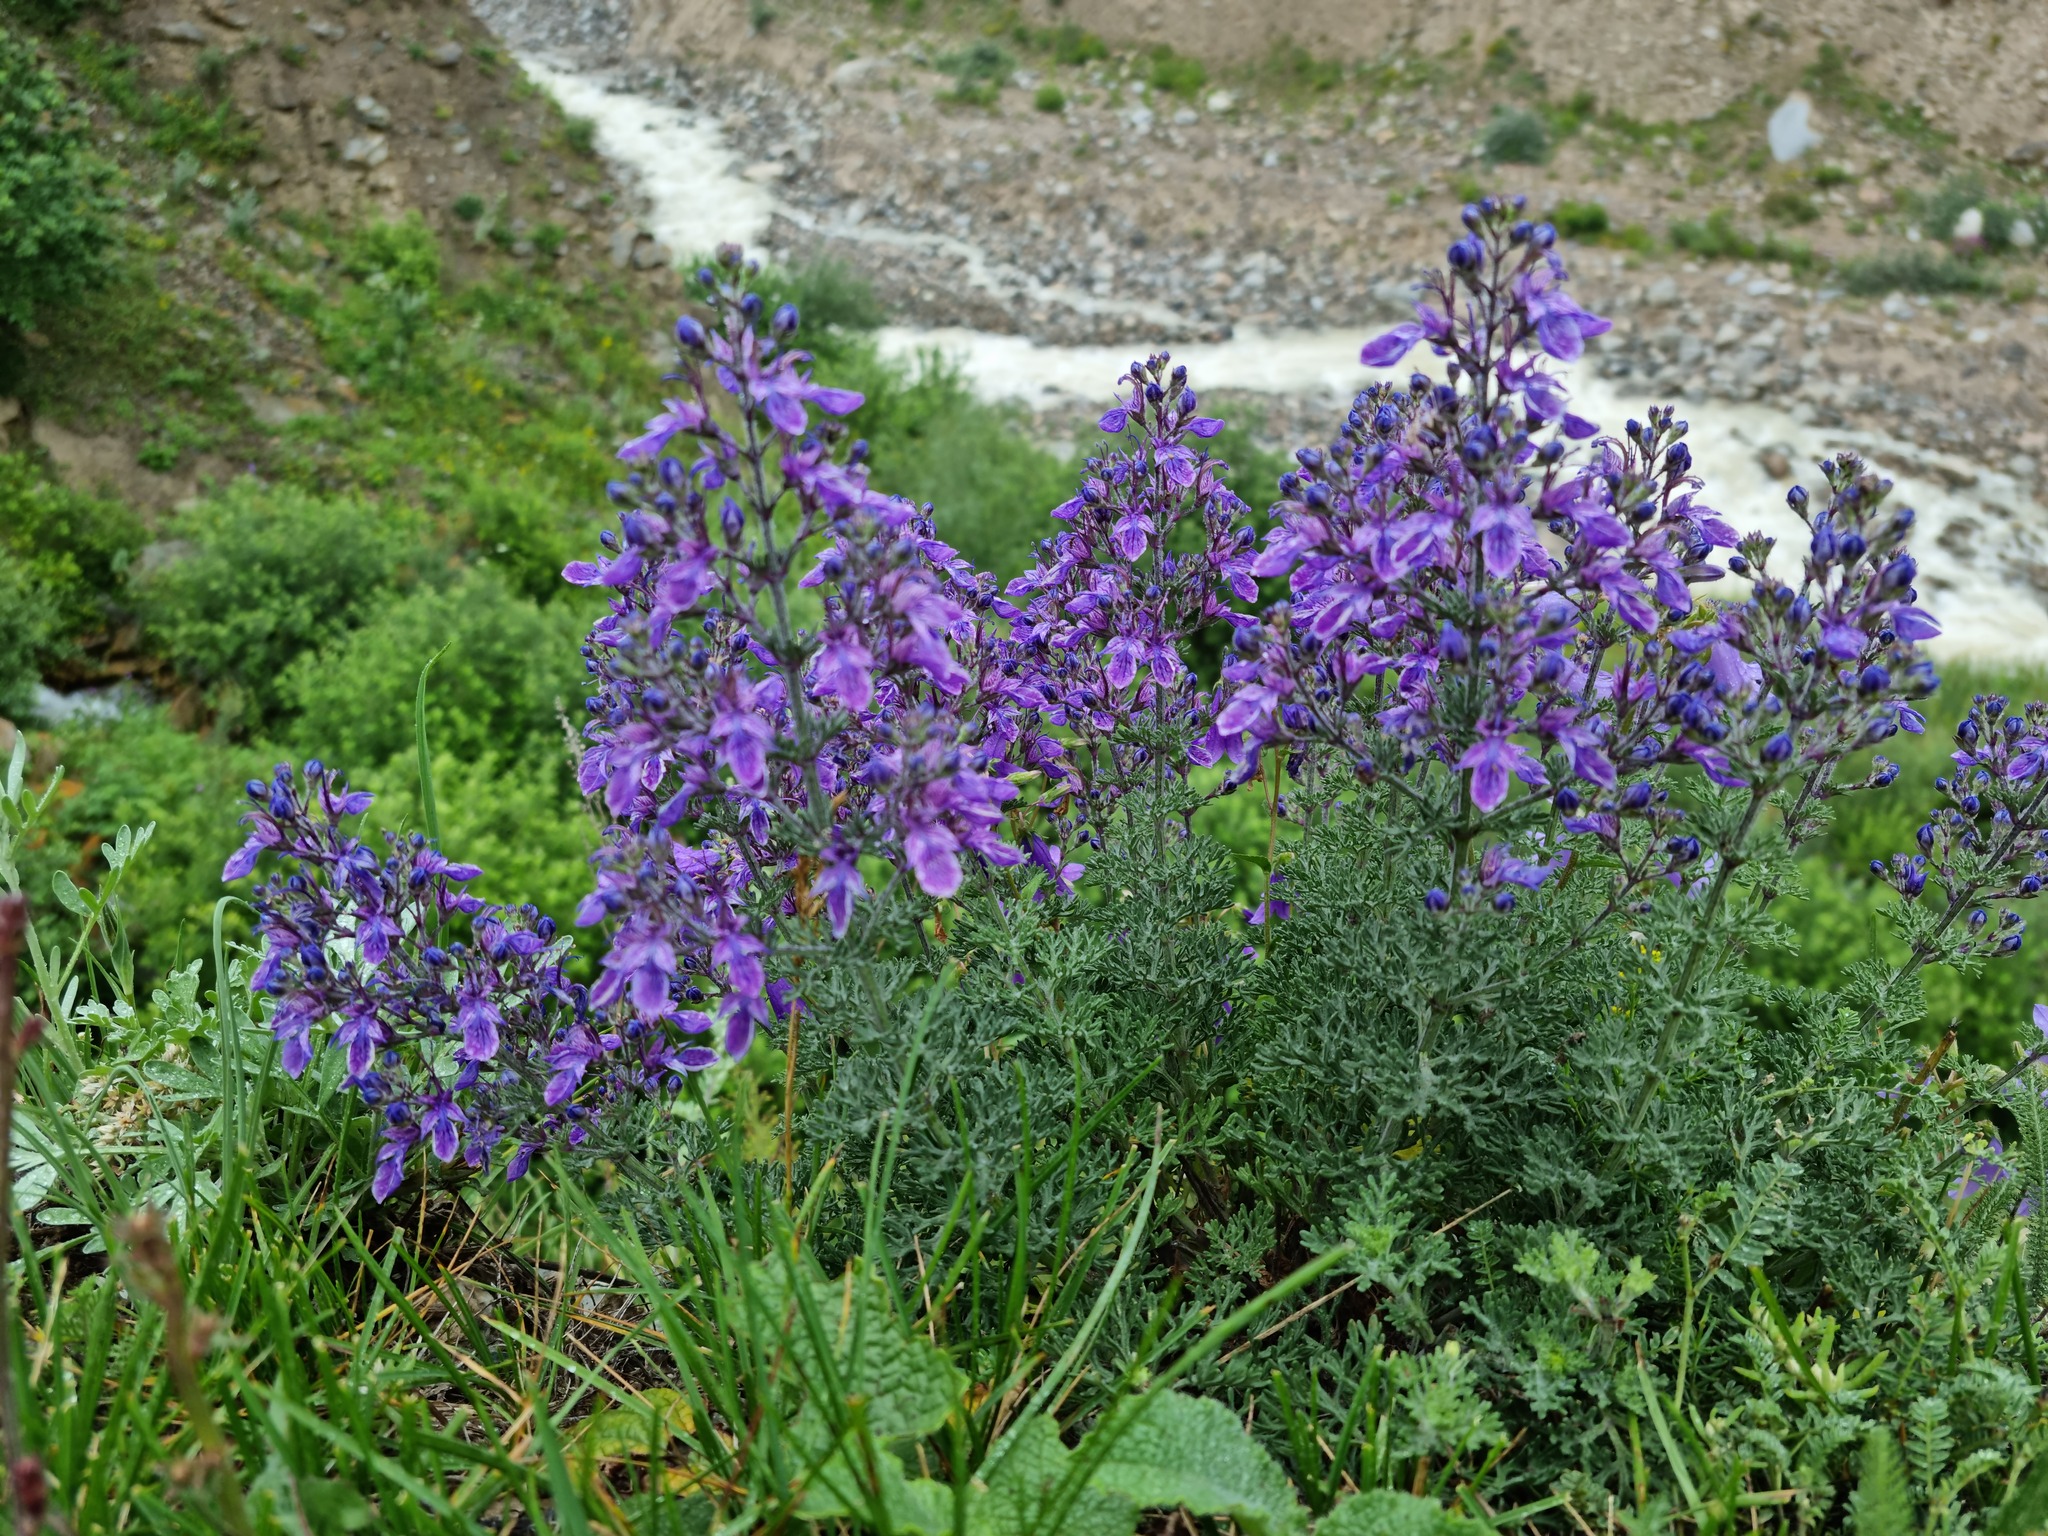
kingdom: Plantae
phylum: Tracheophyta
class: Magnoliopsida
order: Lamiales
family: Lamiaceae
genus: Teucrium
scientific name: Teucrium orientale
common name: Oriental germander
